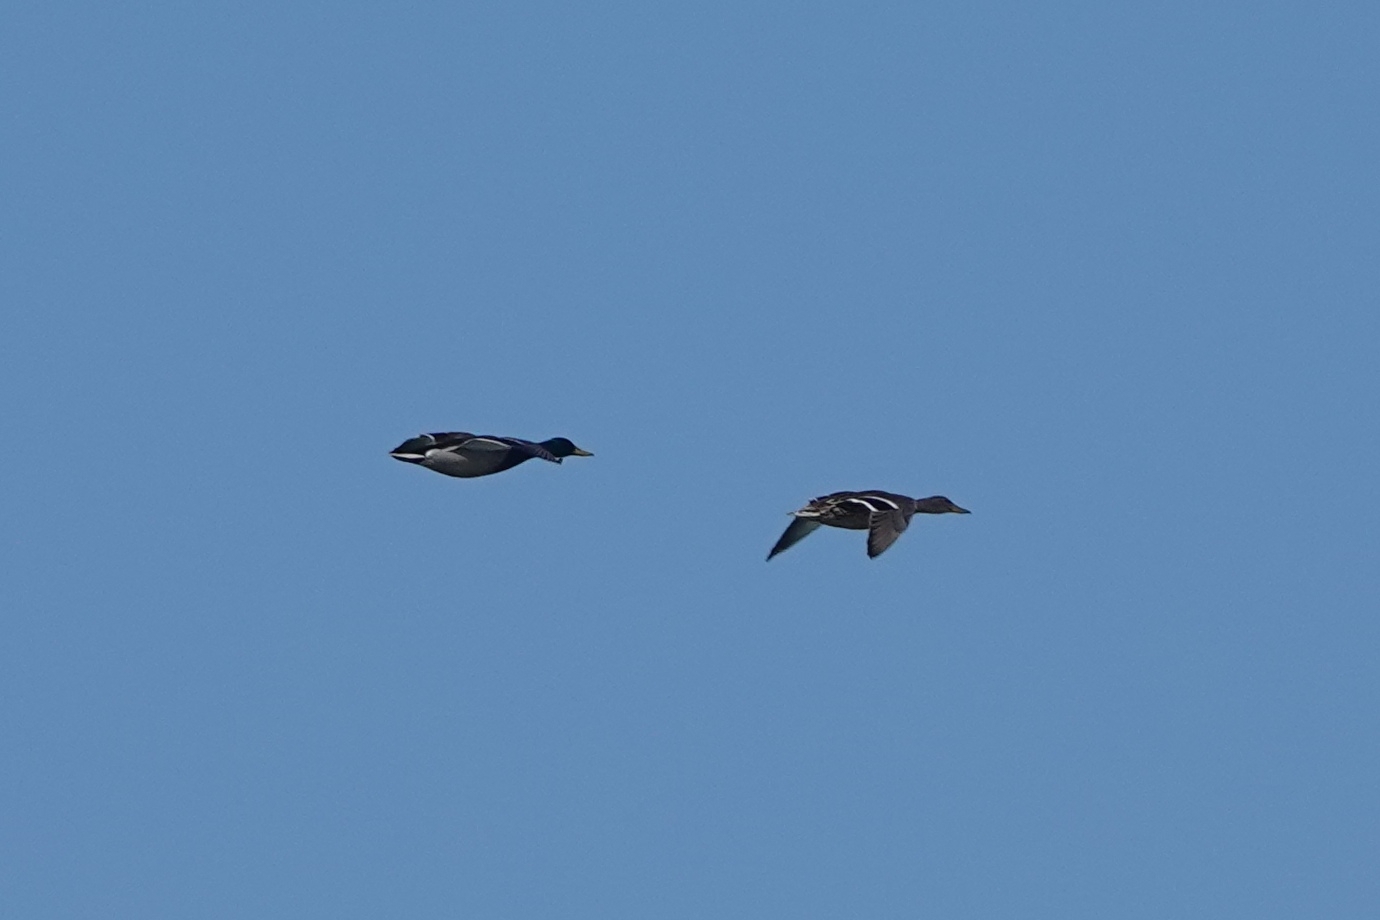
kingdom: Animalia
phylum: Chordata
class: Aves
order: Anseriformes
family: Anatidae
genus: Anas
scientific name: Anas platyrhynchos
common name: Mallard
